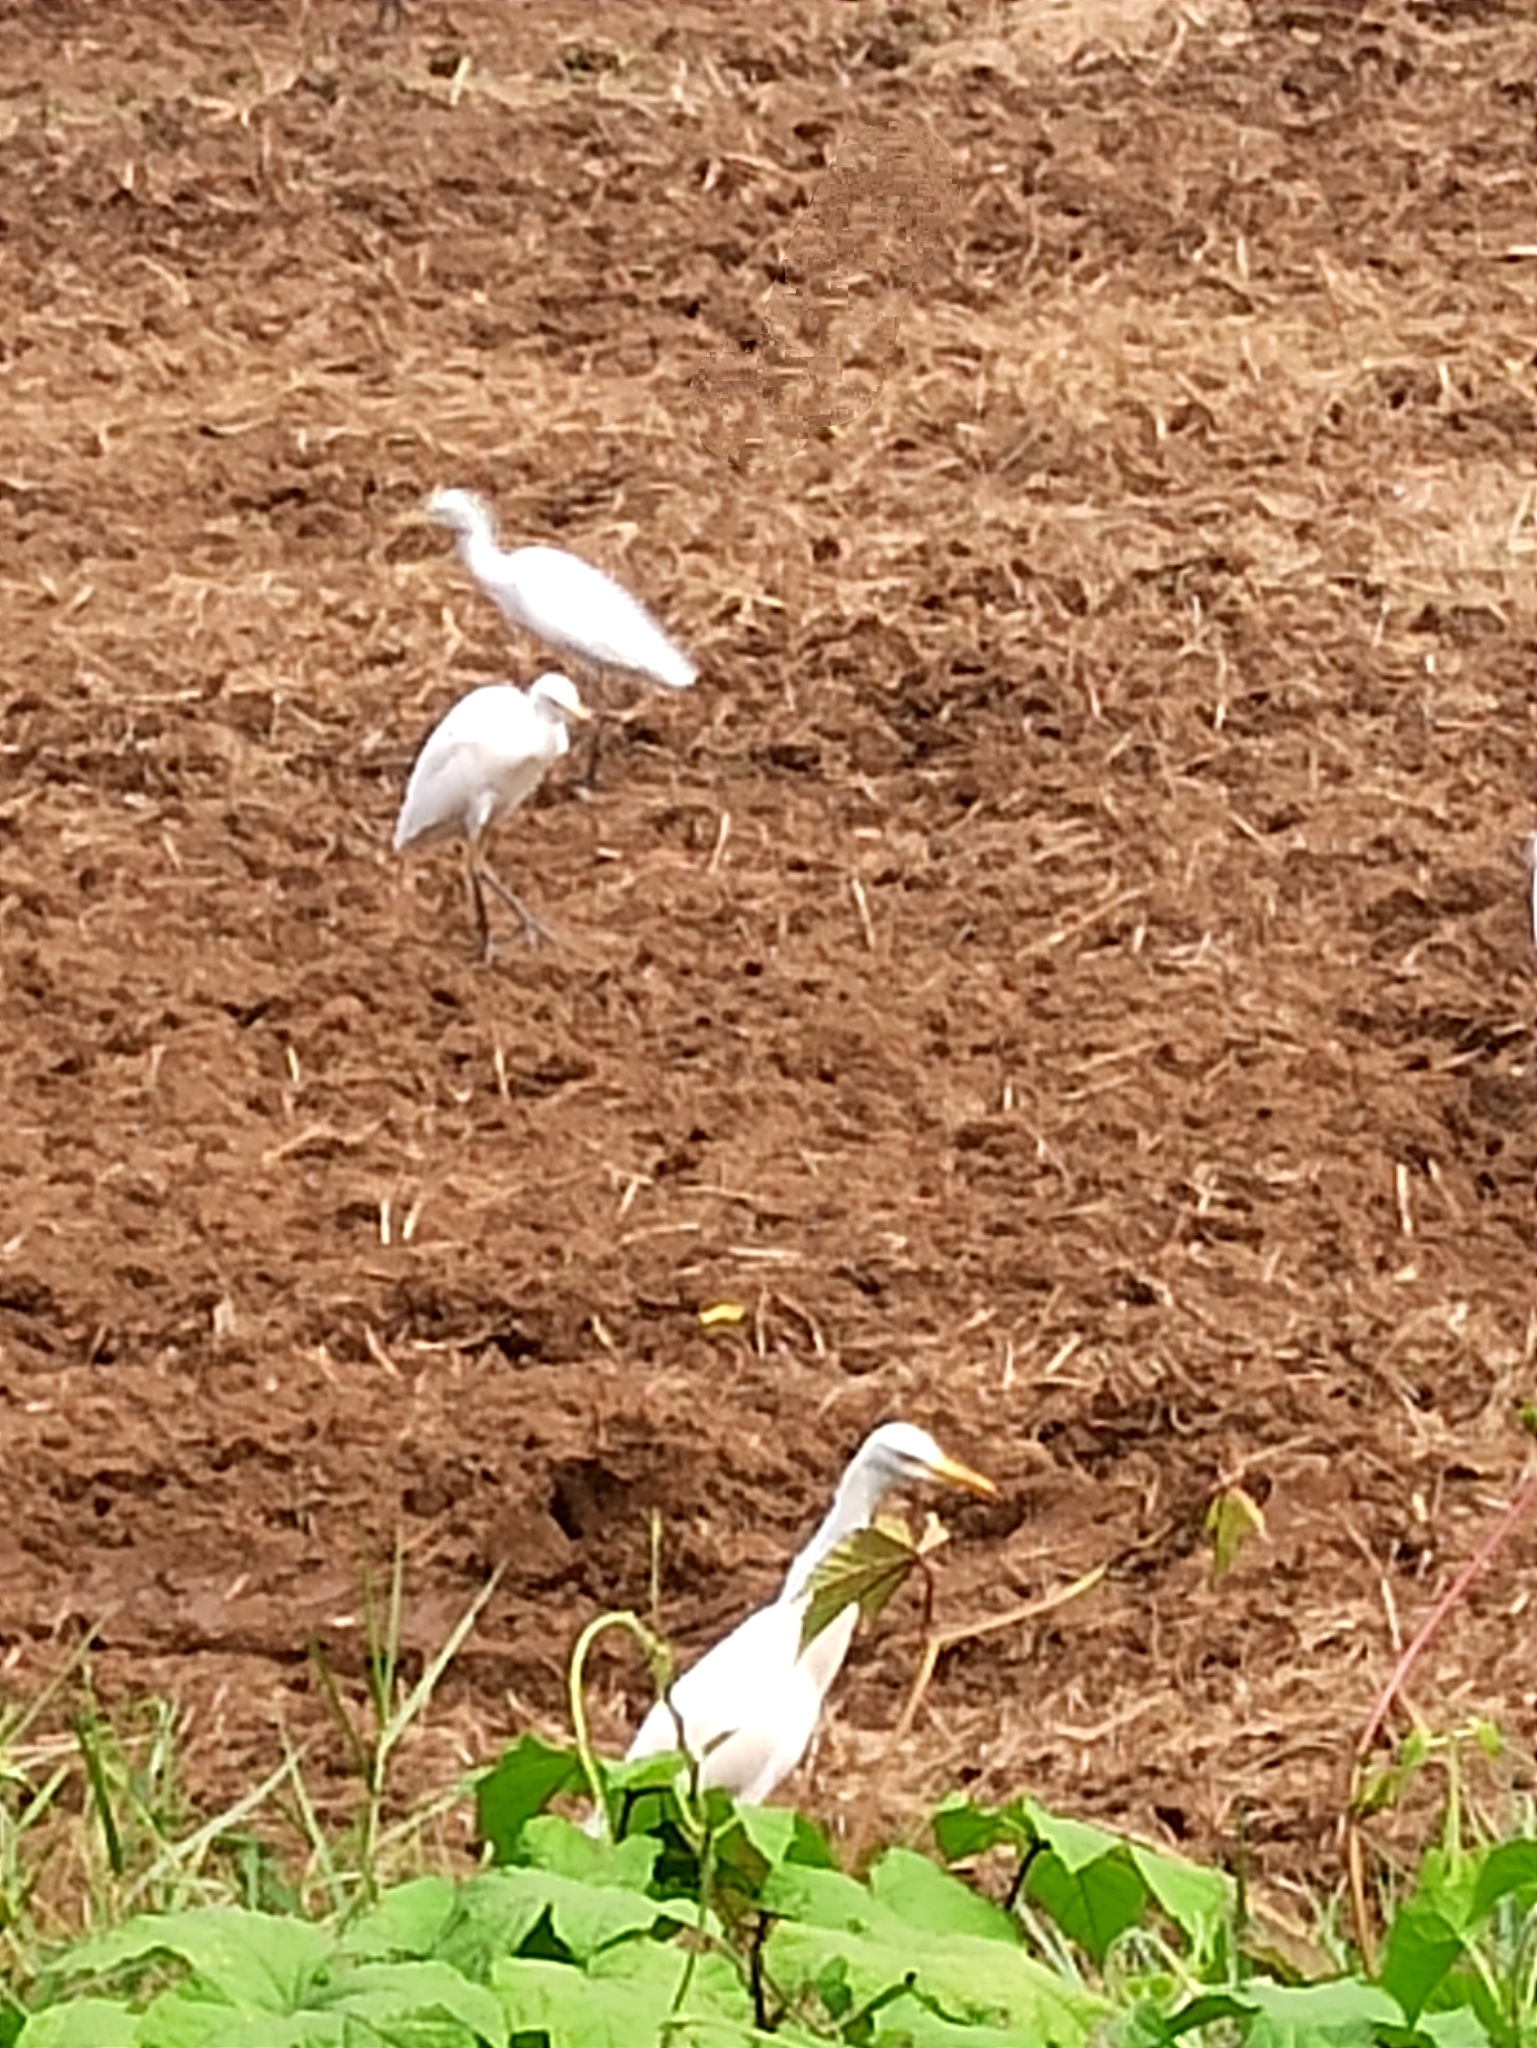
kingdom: Animalia
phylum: Chordata
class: Aves
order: Pelecaniformes
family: Ardeidae
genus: Bubulcus
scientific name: Bubulcus coromandus
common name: Eastern cattle egret
